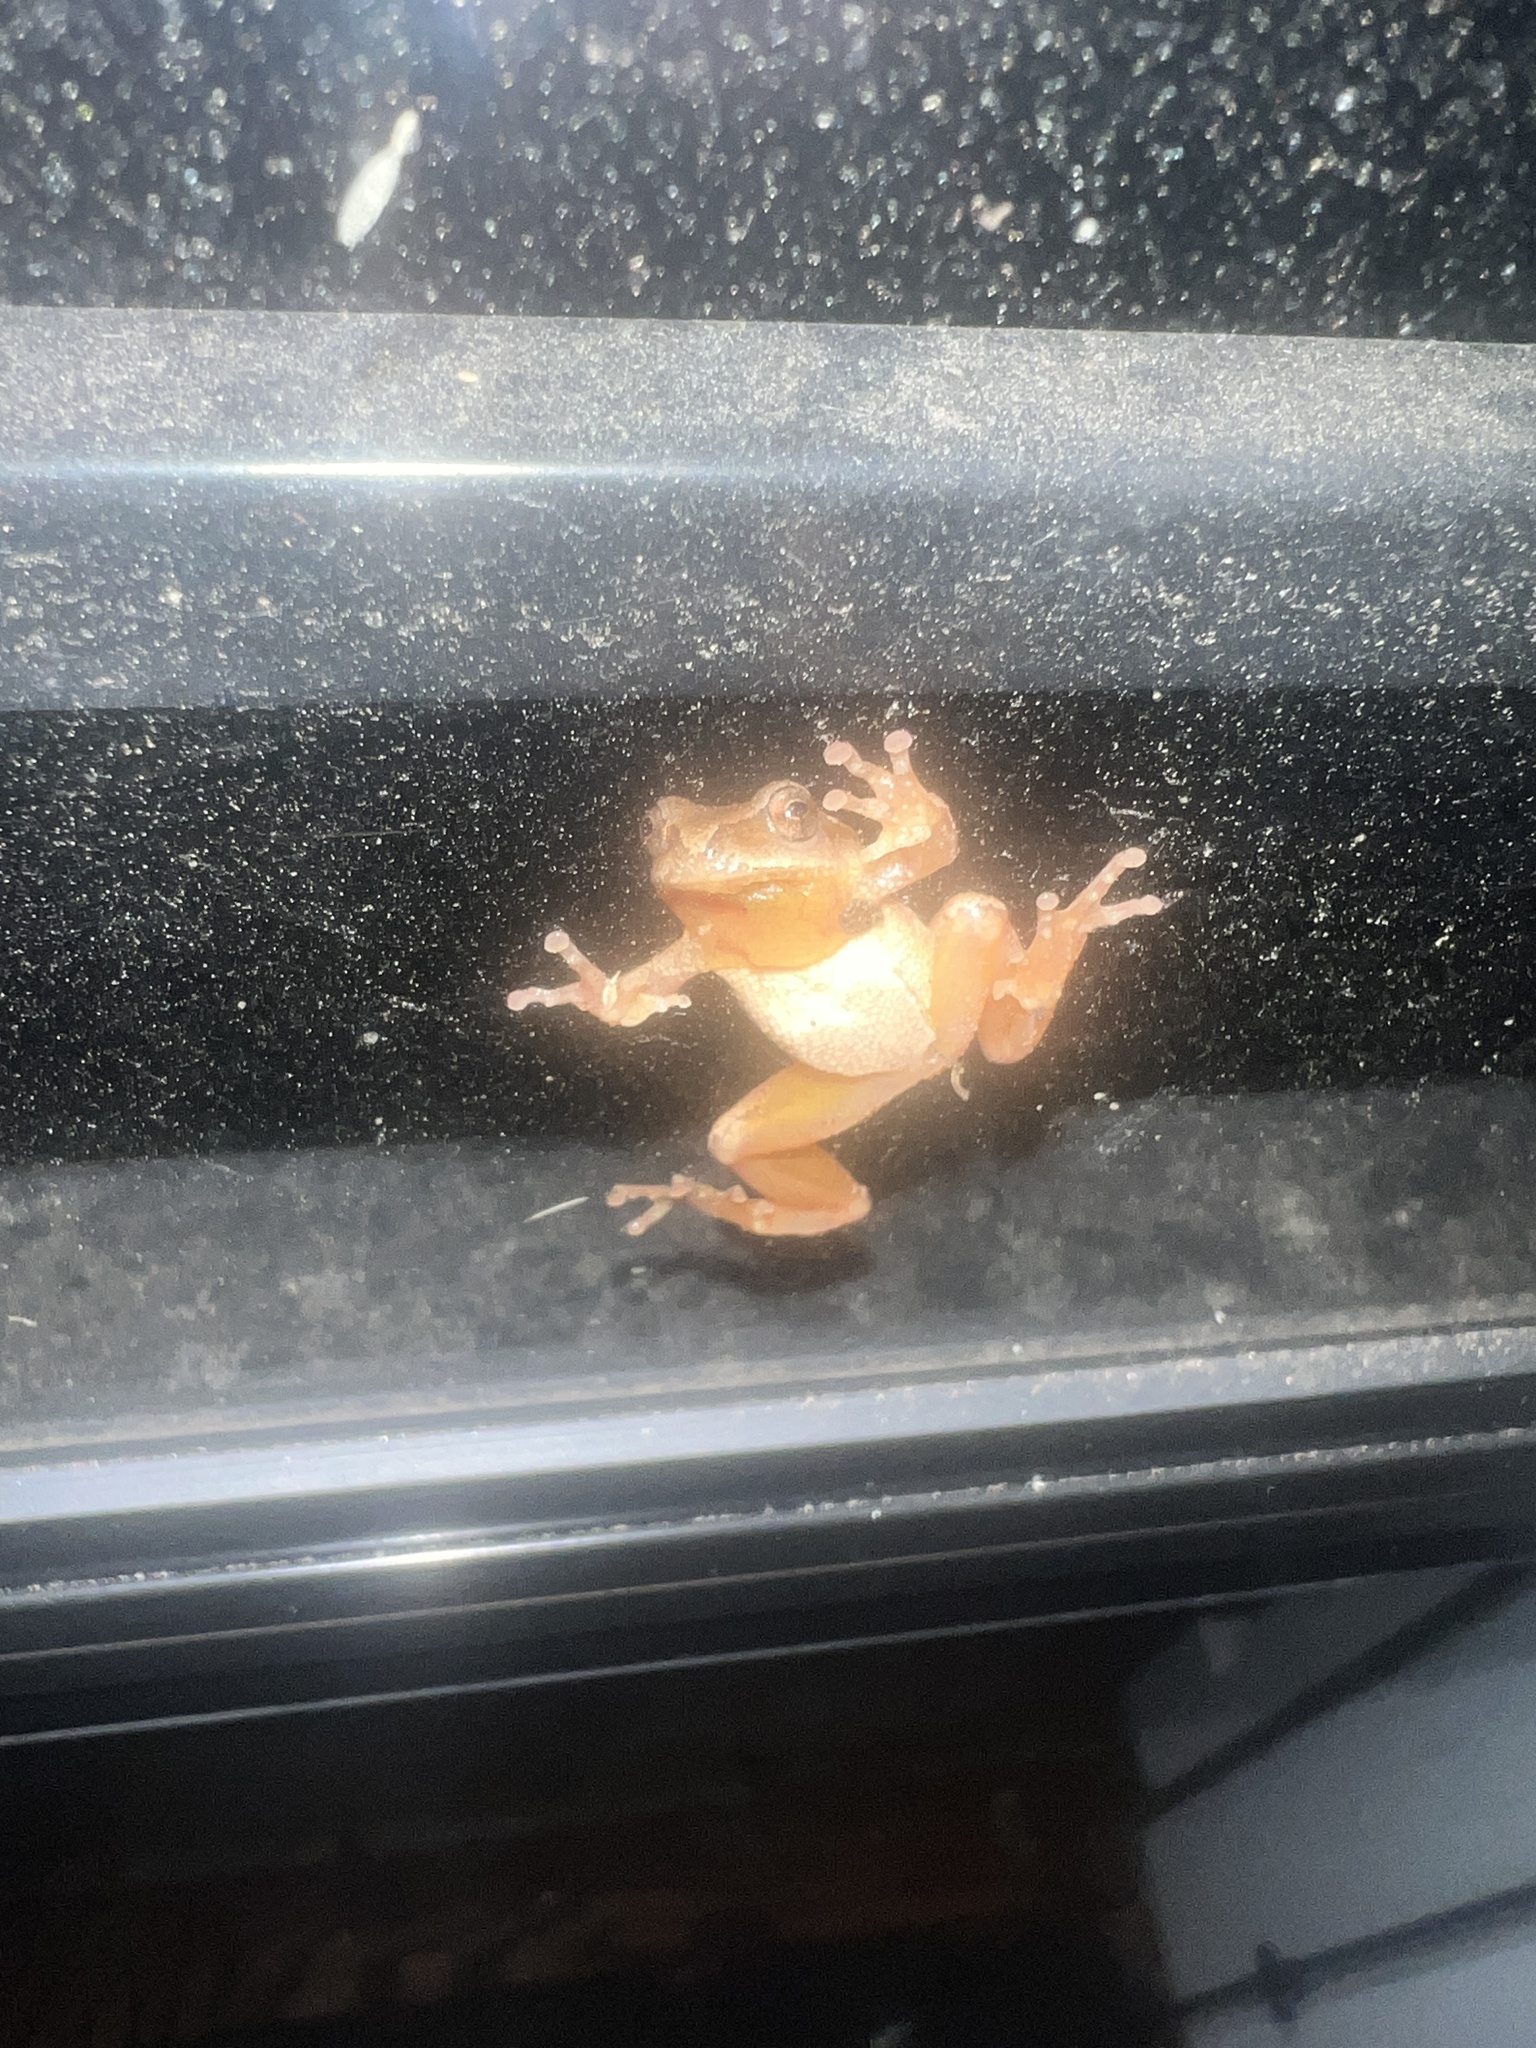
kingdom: Animalia
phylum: Chordata
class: Amphibia
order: Anura
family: Hylidae
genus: Pseudacris
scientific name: Pseudacris crucifer
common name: Spring peeper
